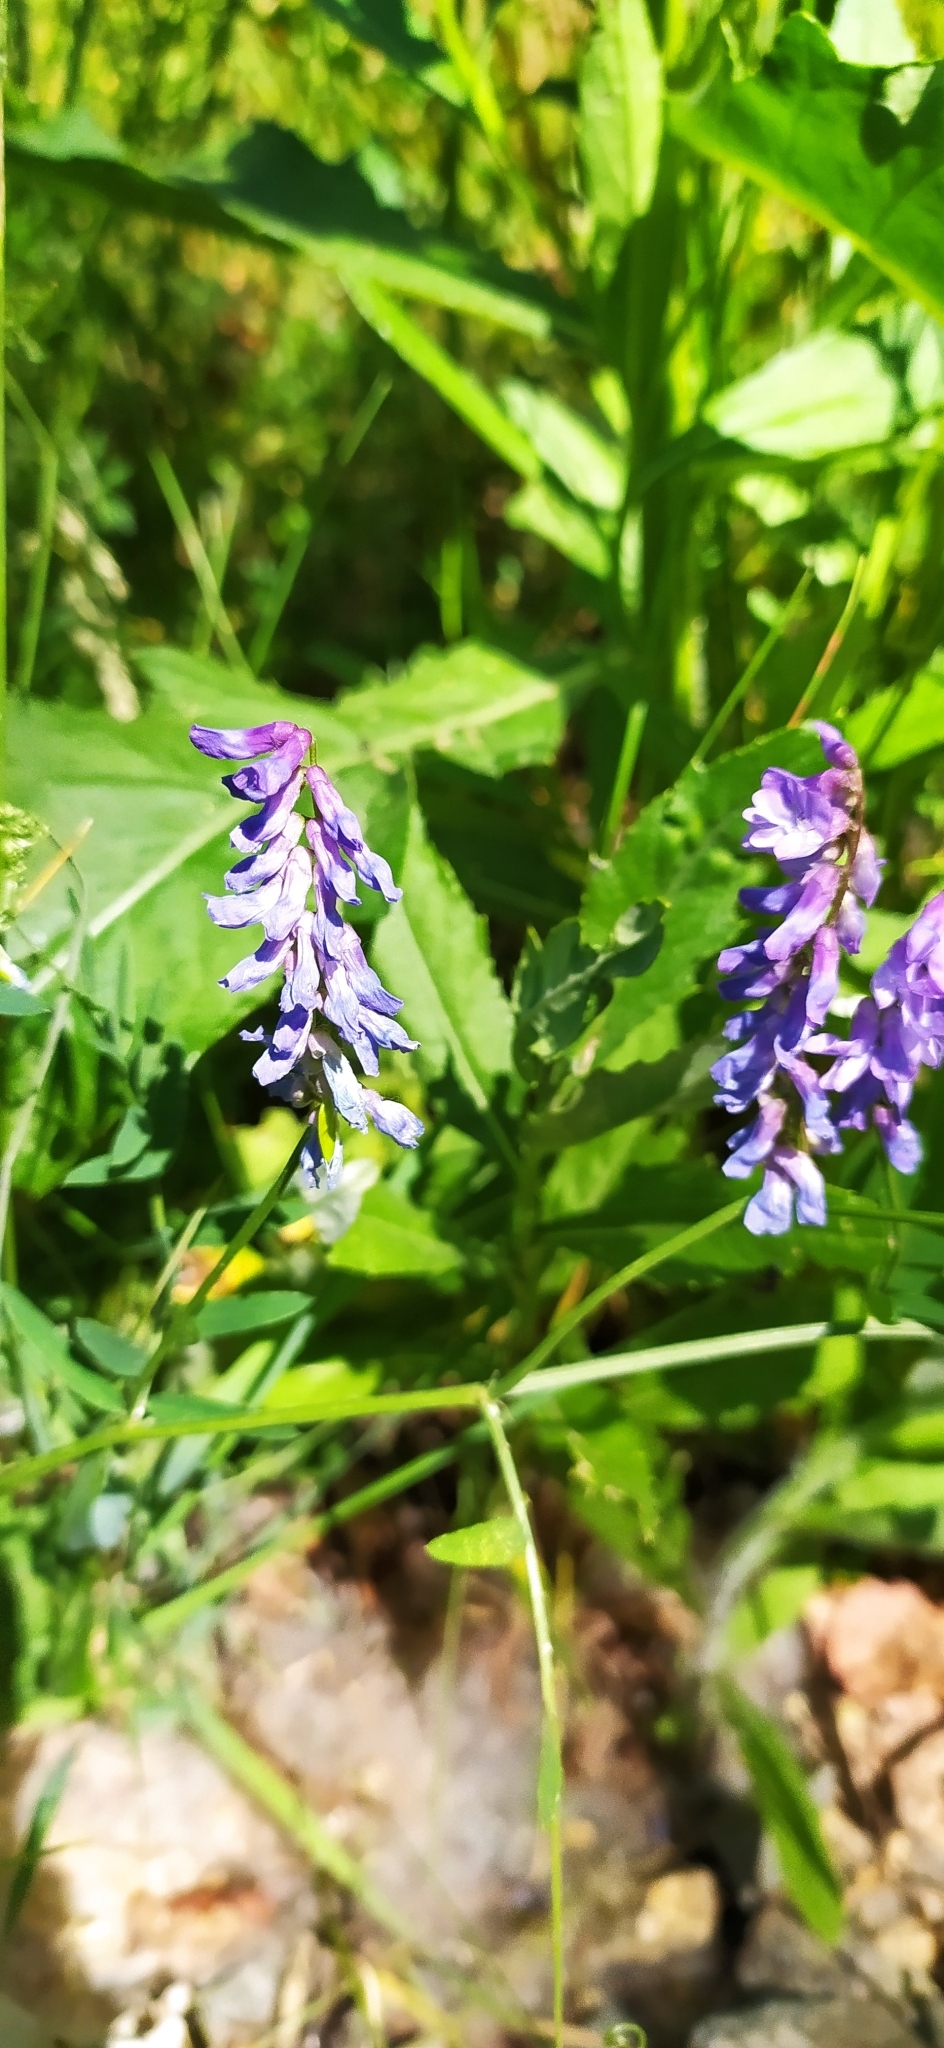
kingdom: Plantae
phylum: Tracheophyta
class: Magnoliopsida
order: Fabales
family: Fabaceae
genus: Vicia
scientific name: Vicia cracca
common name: Bird vetch
